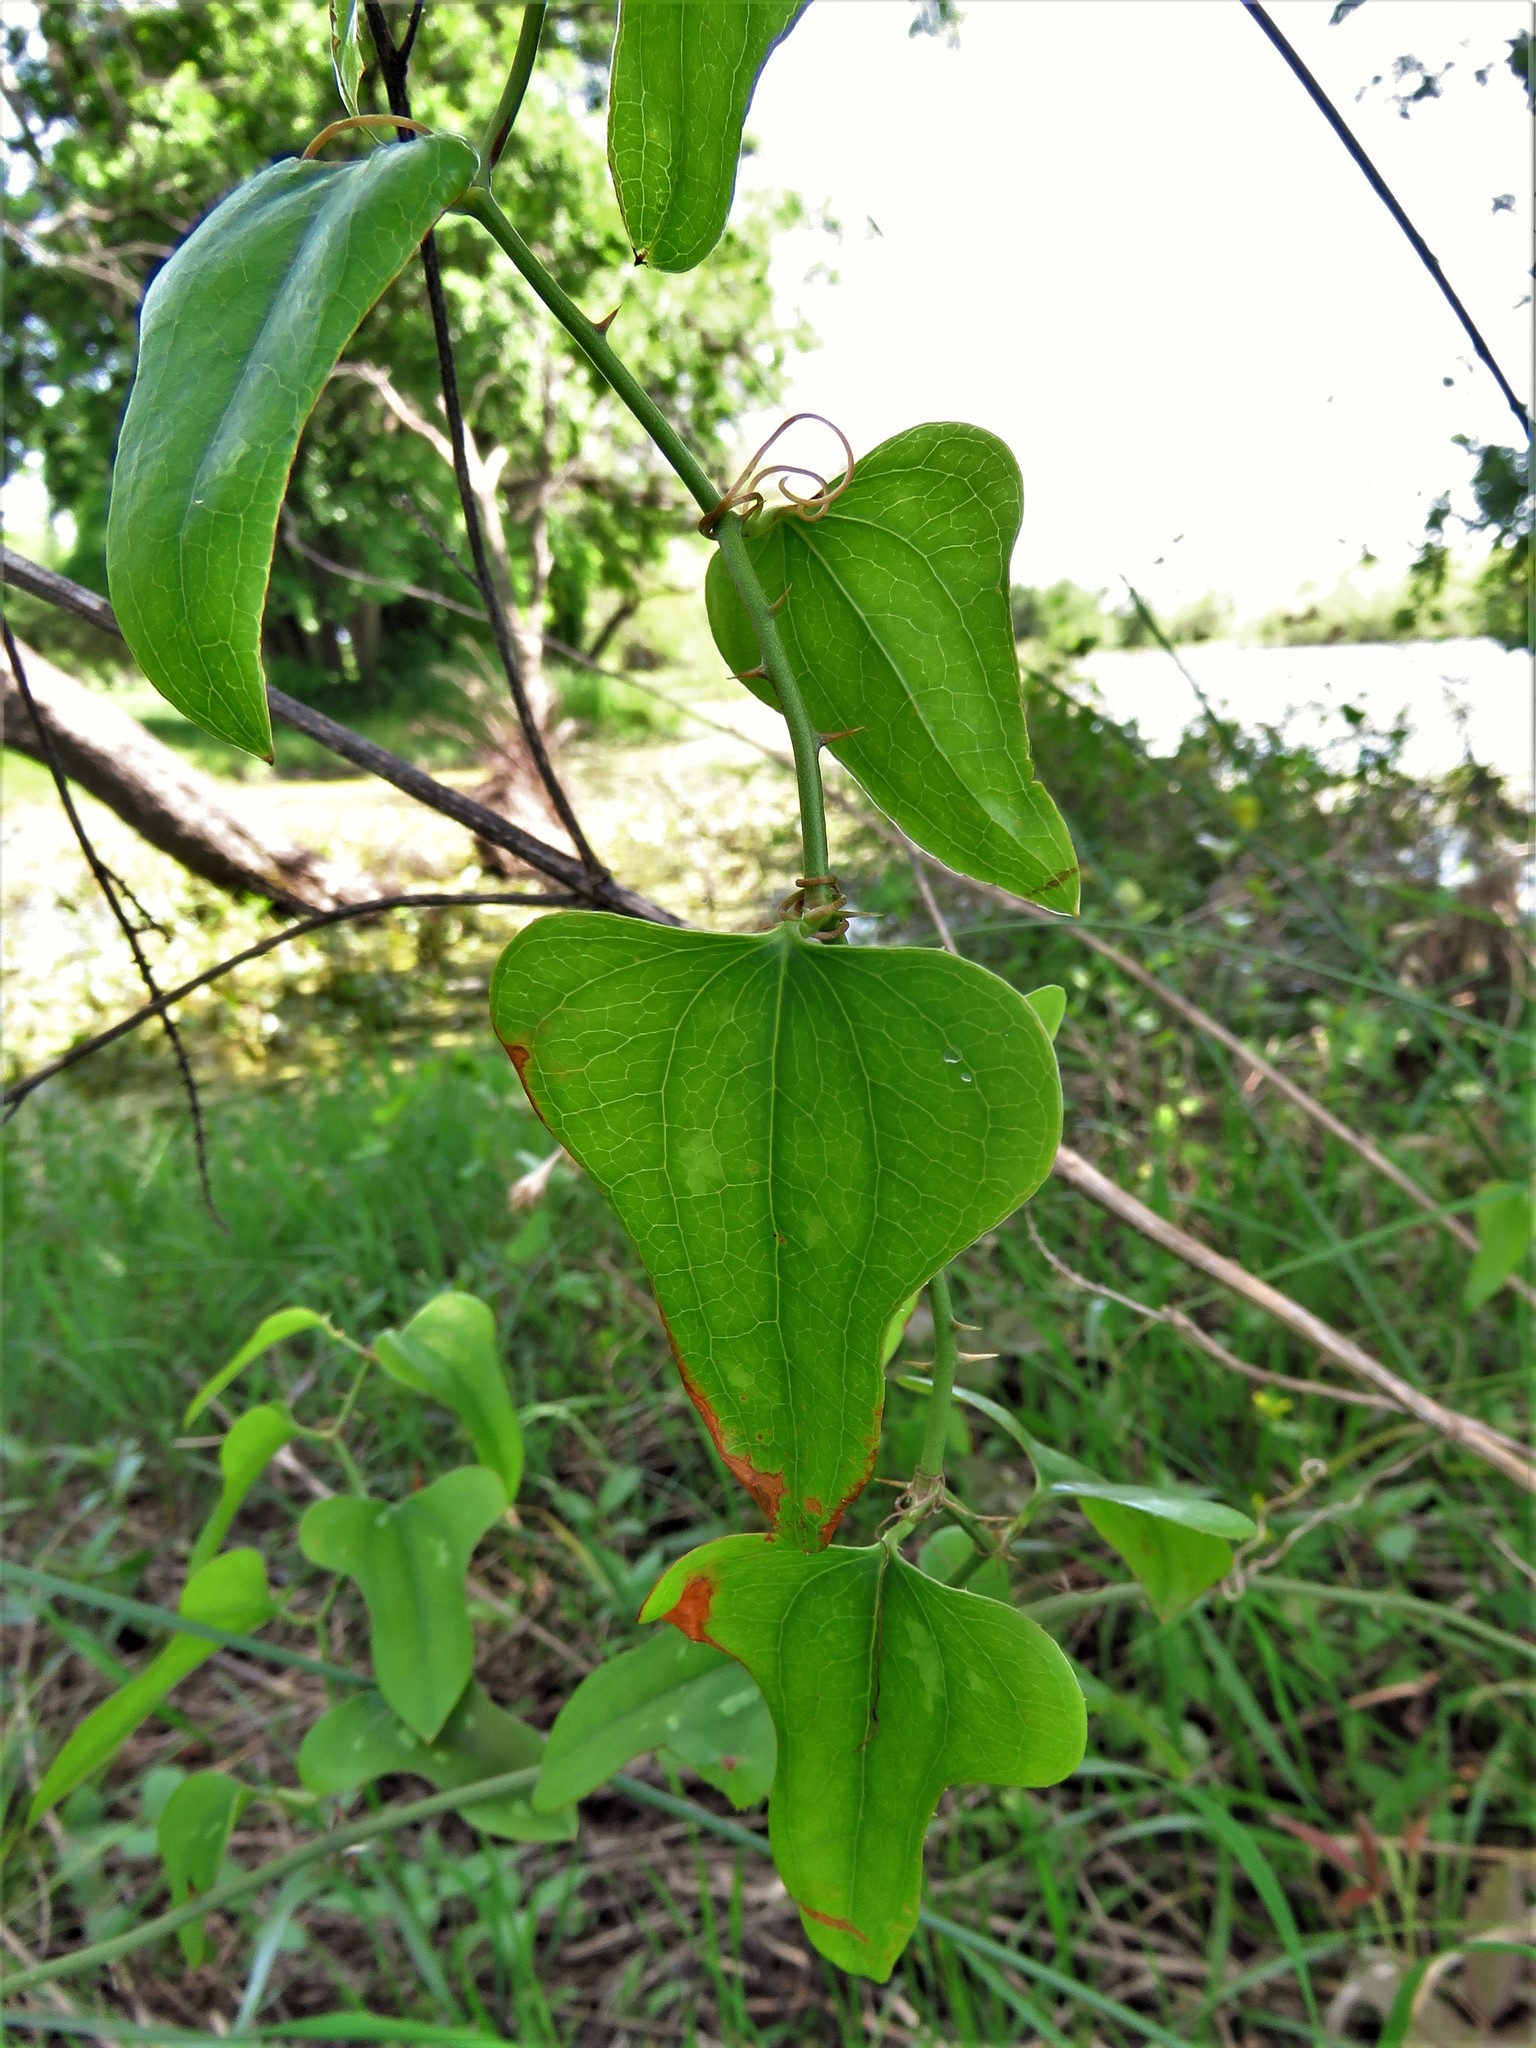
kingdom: Plantae
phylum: Tracheophyta
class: Liliopsida
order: Liliales
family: Smilacaceae
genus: Smilax
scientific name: Smilax bona-nox
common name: Catbrier
